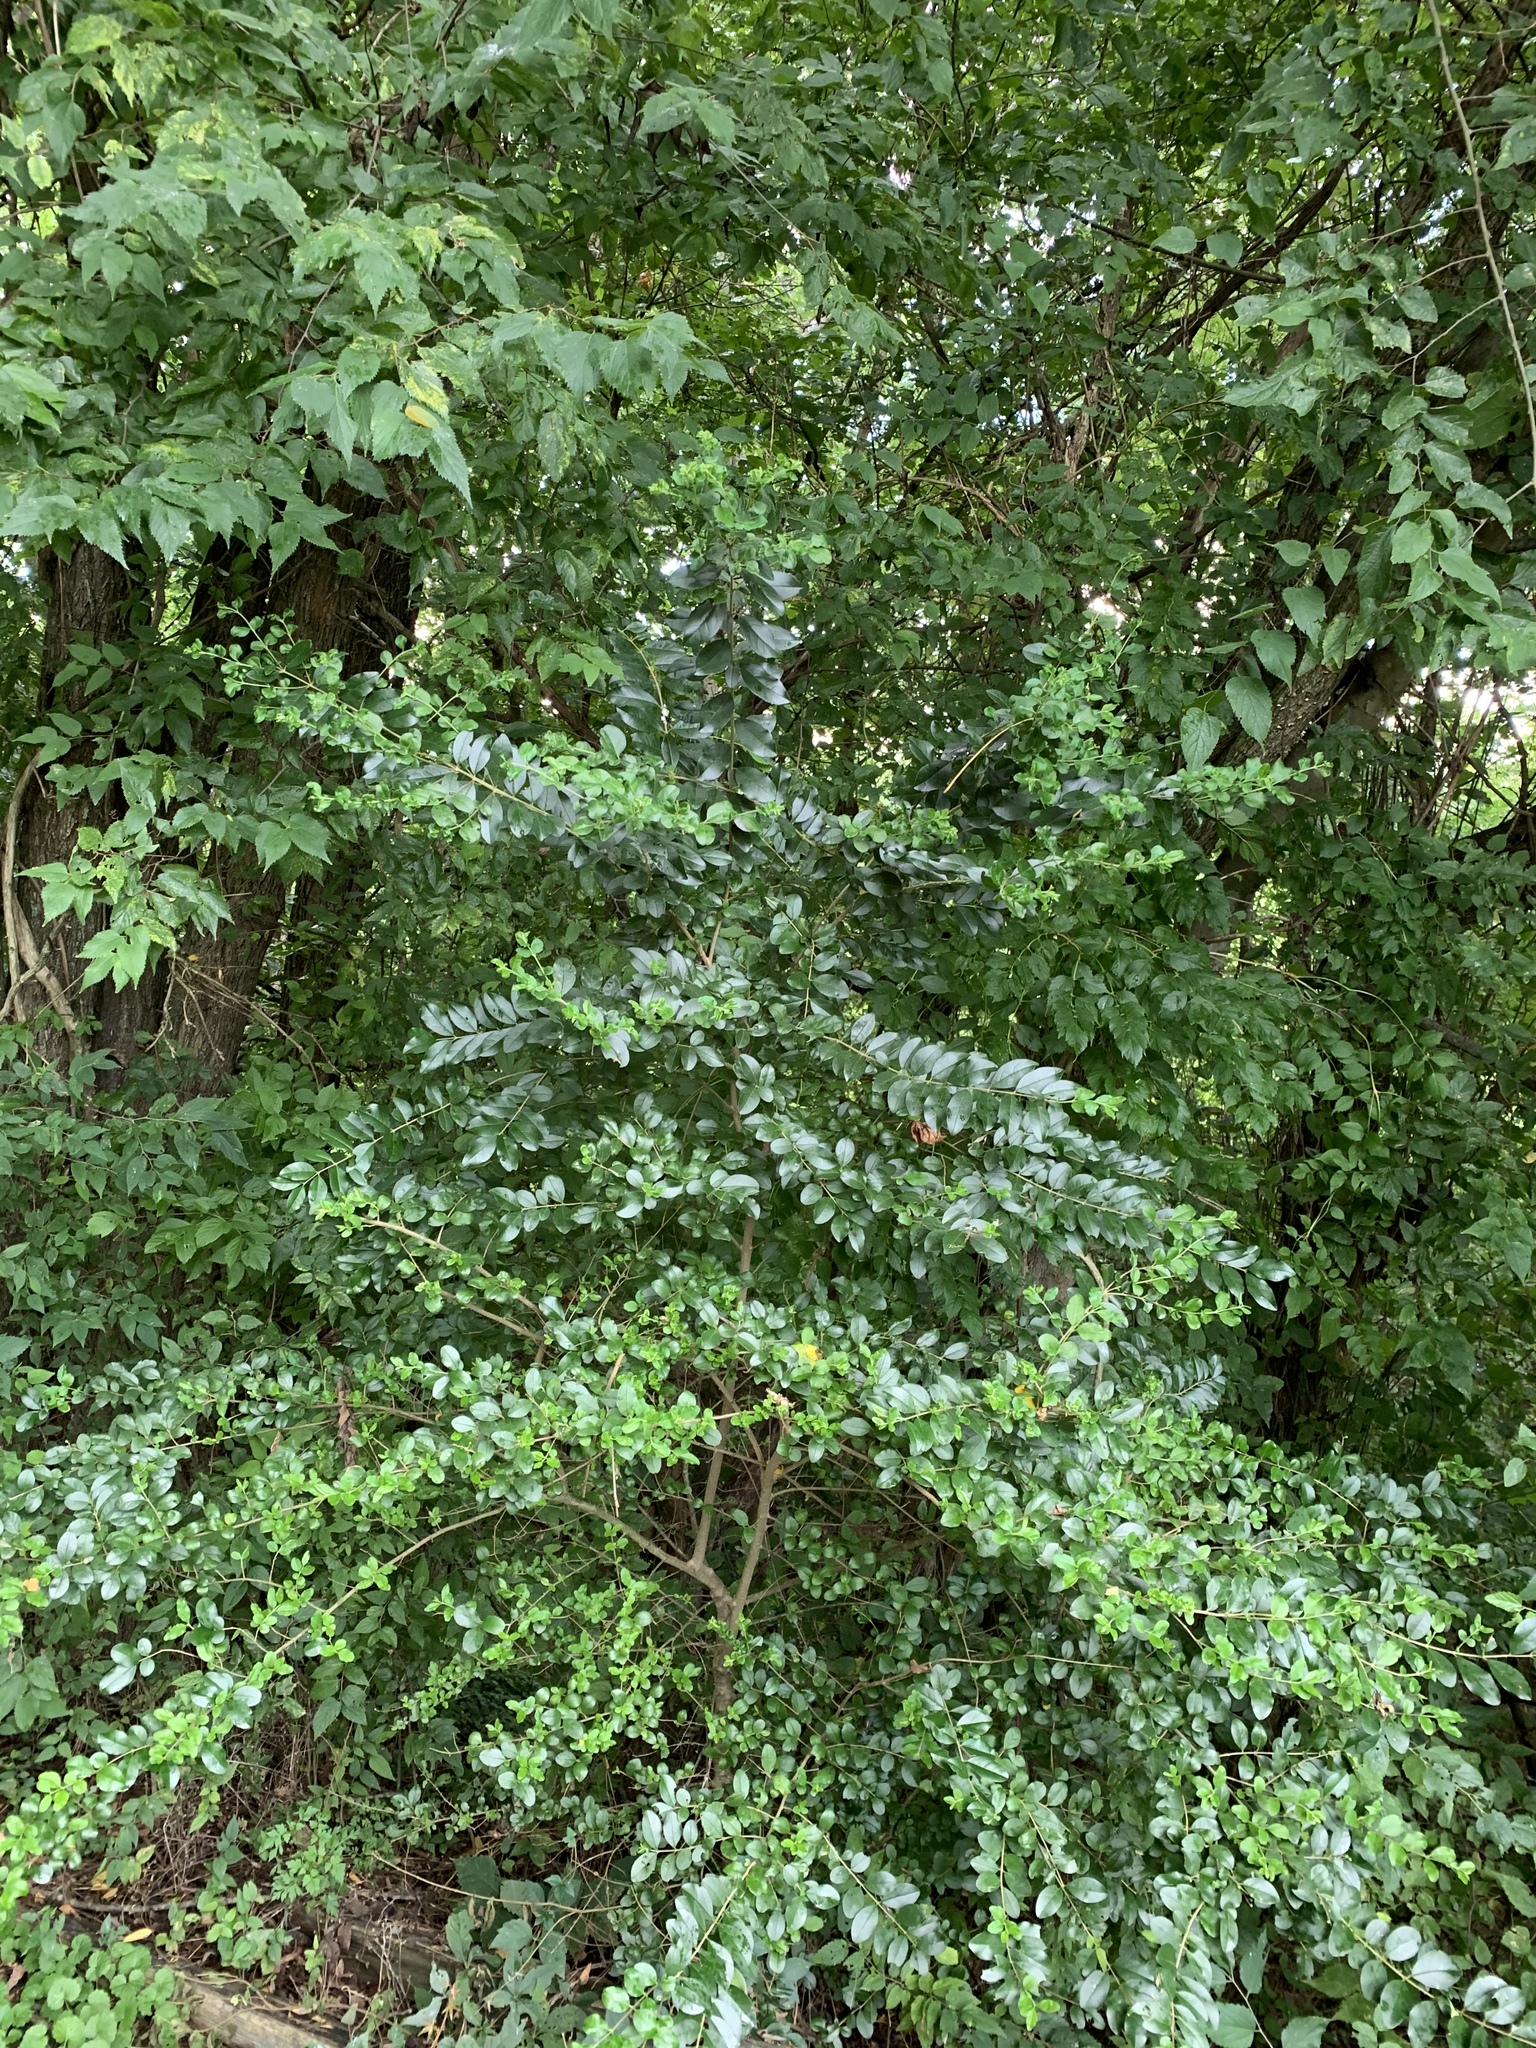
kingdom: Plantae
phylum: Tracheophyta
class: Magnoliopsida
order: Lamiales
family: Oleaceae
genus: Ligustrum
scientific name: Ligustrum sinense
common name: Chinese privet
